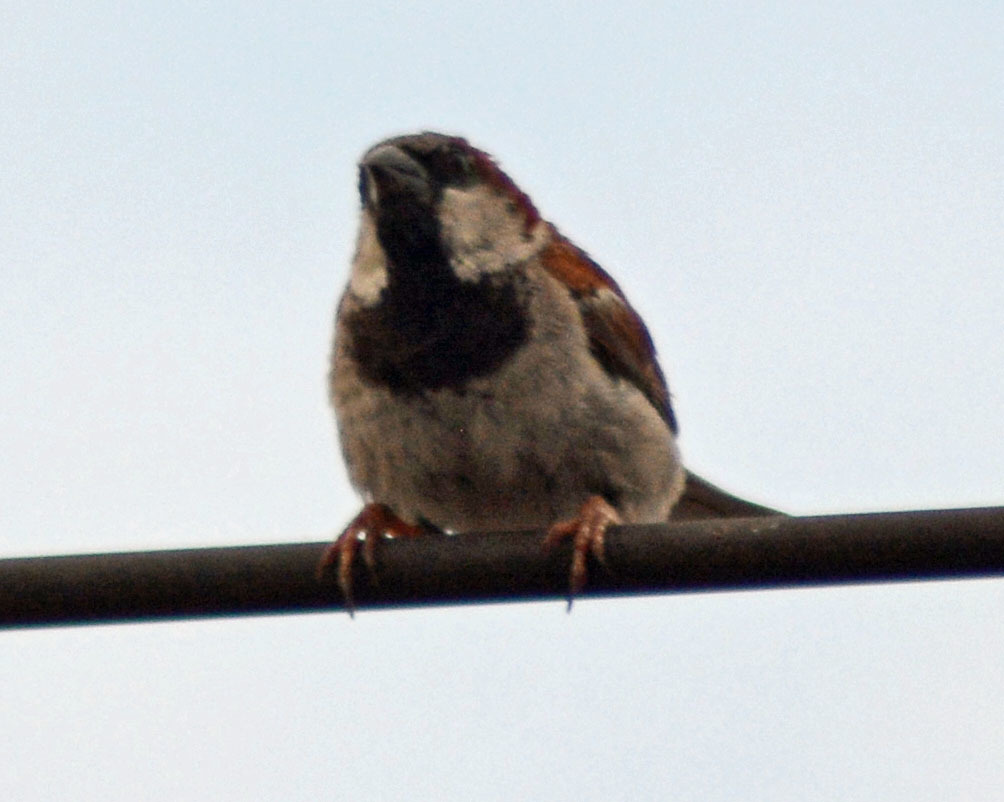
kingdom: Animalia
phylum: Chordata
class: Aves
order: Passeriformes
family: Passeridae
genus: Passer
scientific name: Passer domesticus
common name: House sparrow
